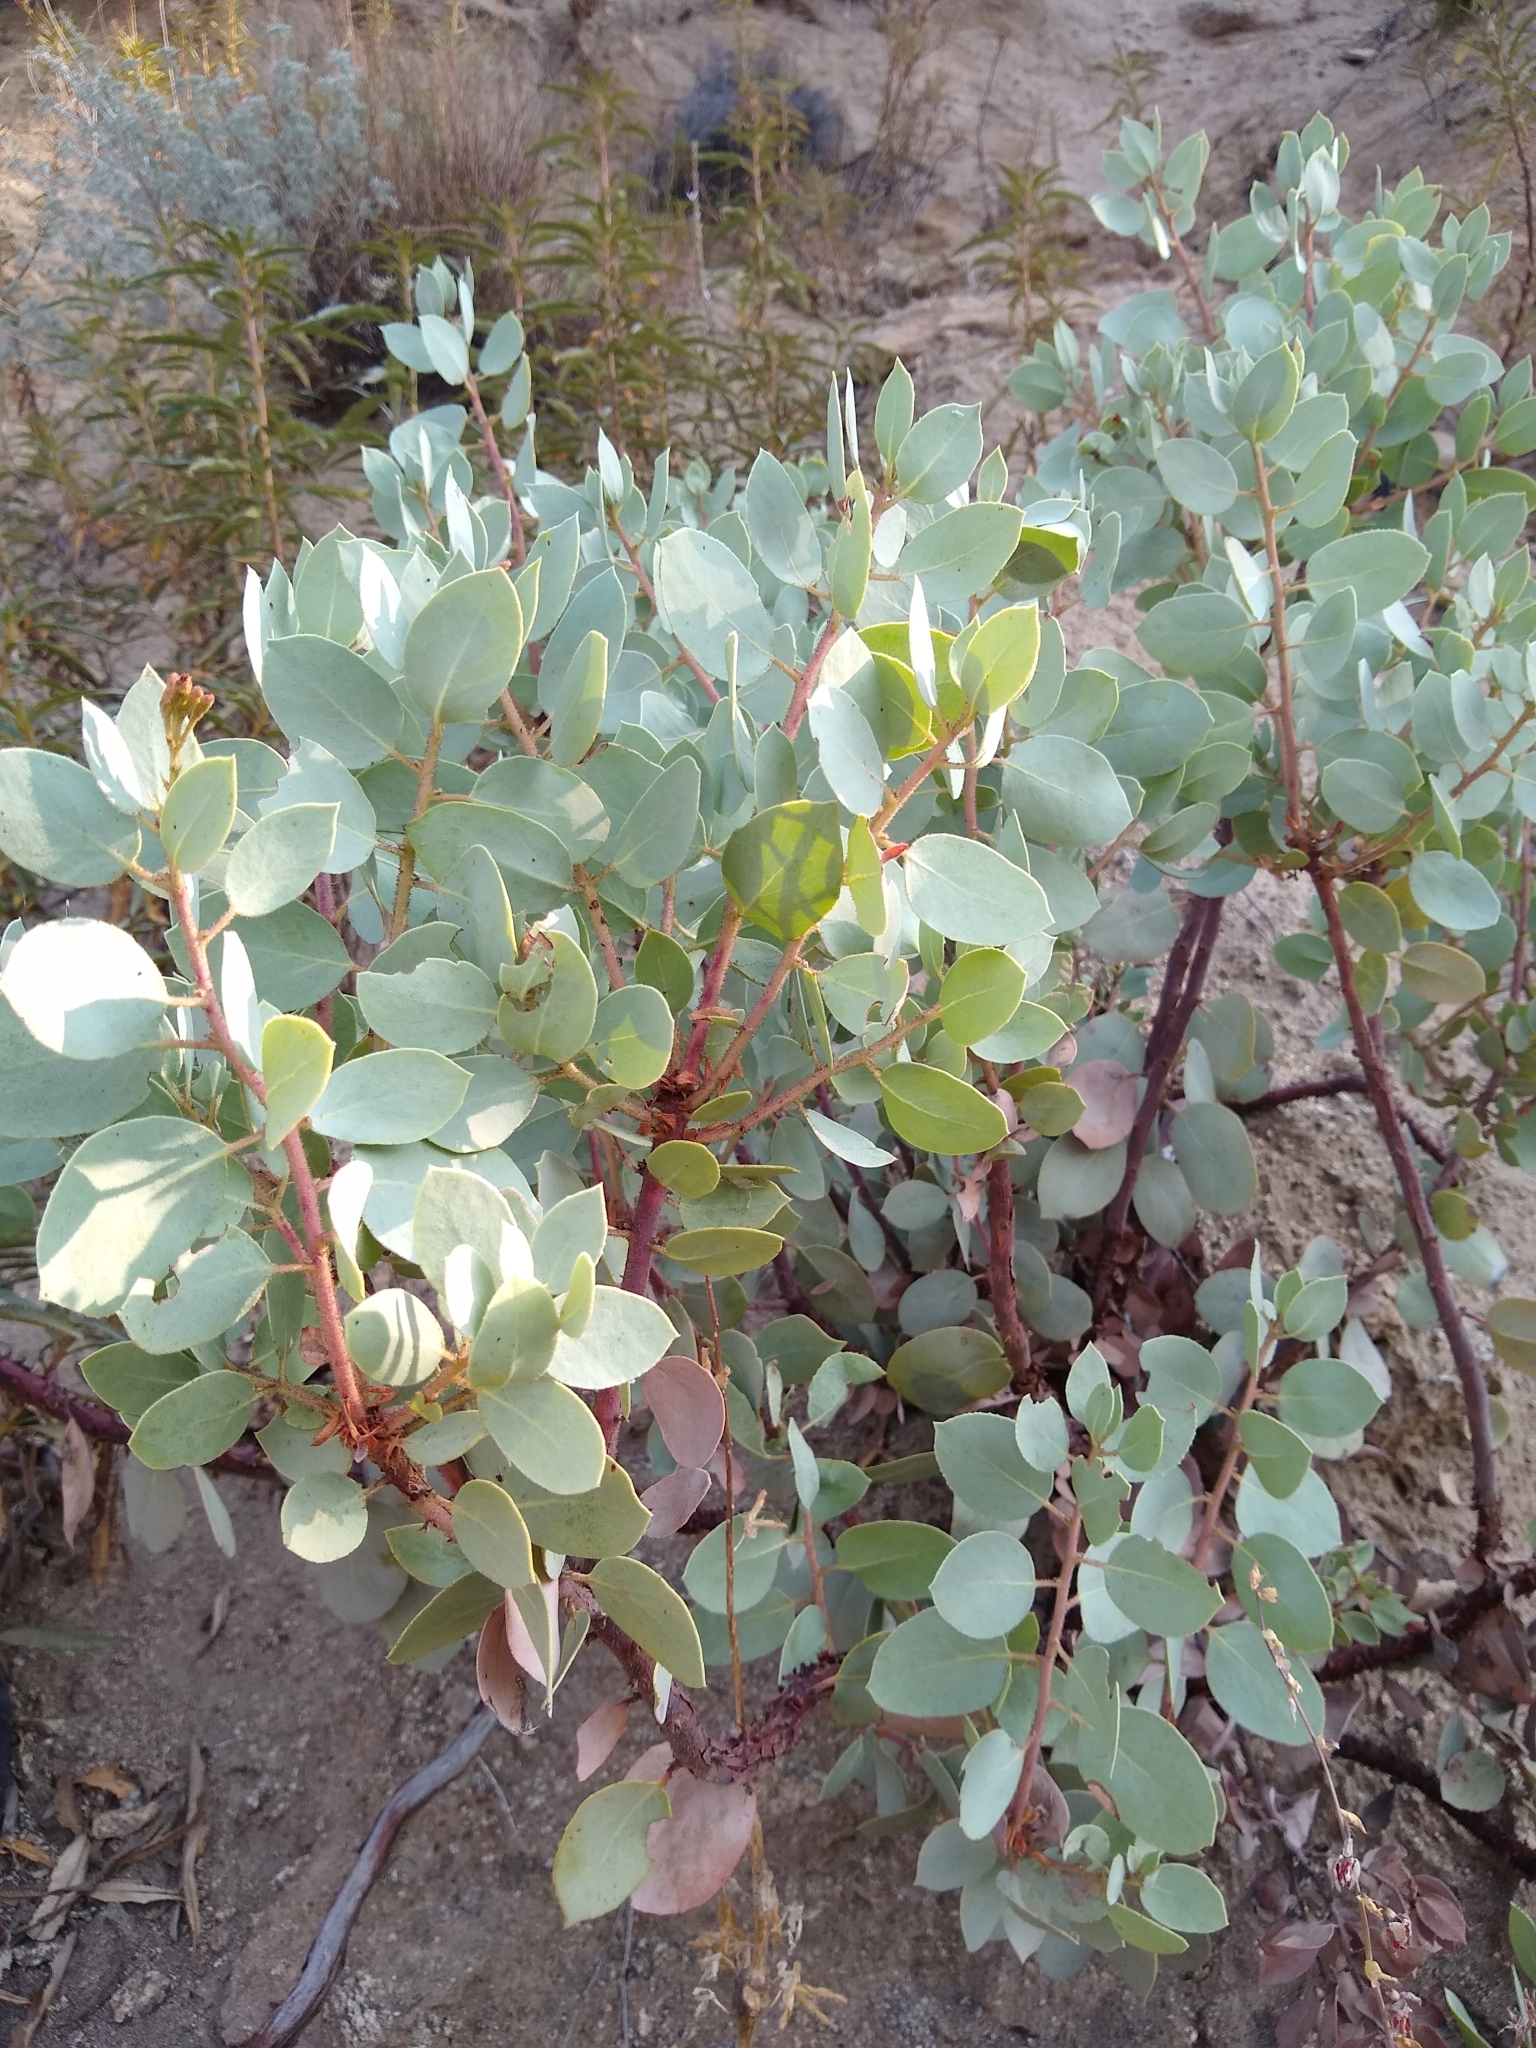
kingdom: Plantae
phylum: Tracheophyta
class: Magnoliopsida
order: Ericales
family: Ericaceae
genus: Arctostaphylos
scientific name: Arctostaphylos viscida
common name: White-leaf manzanita
